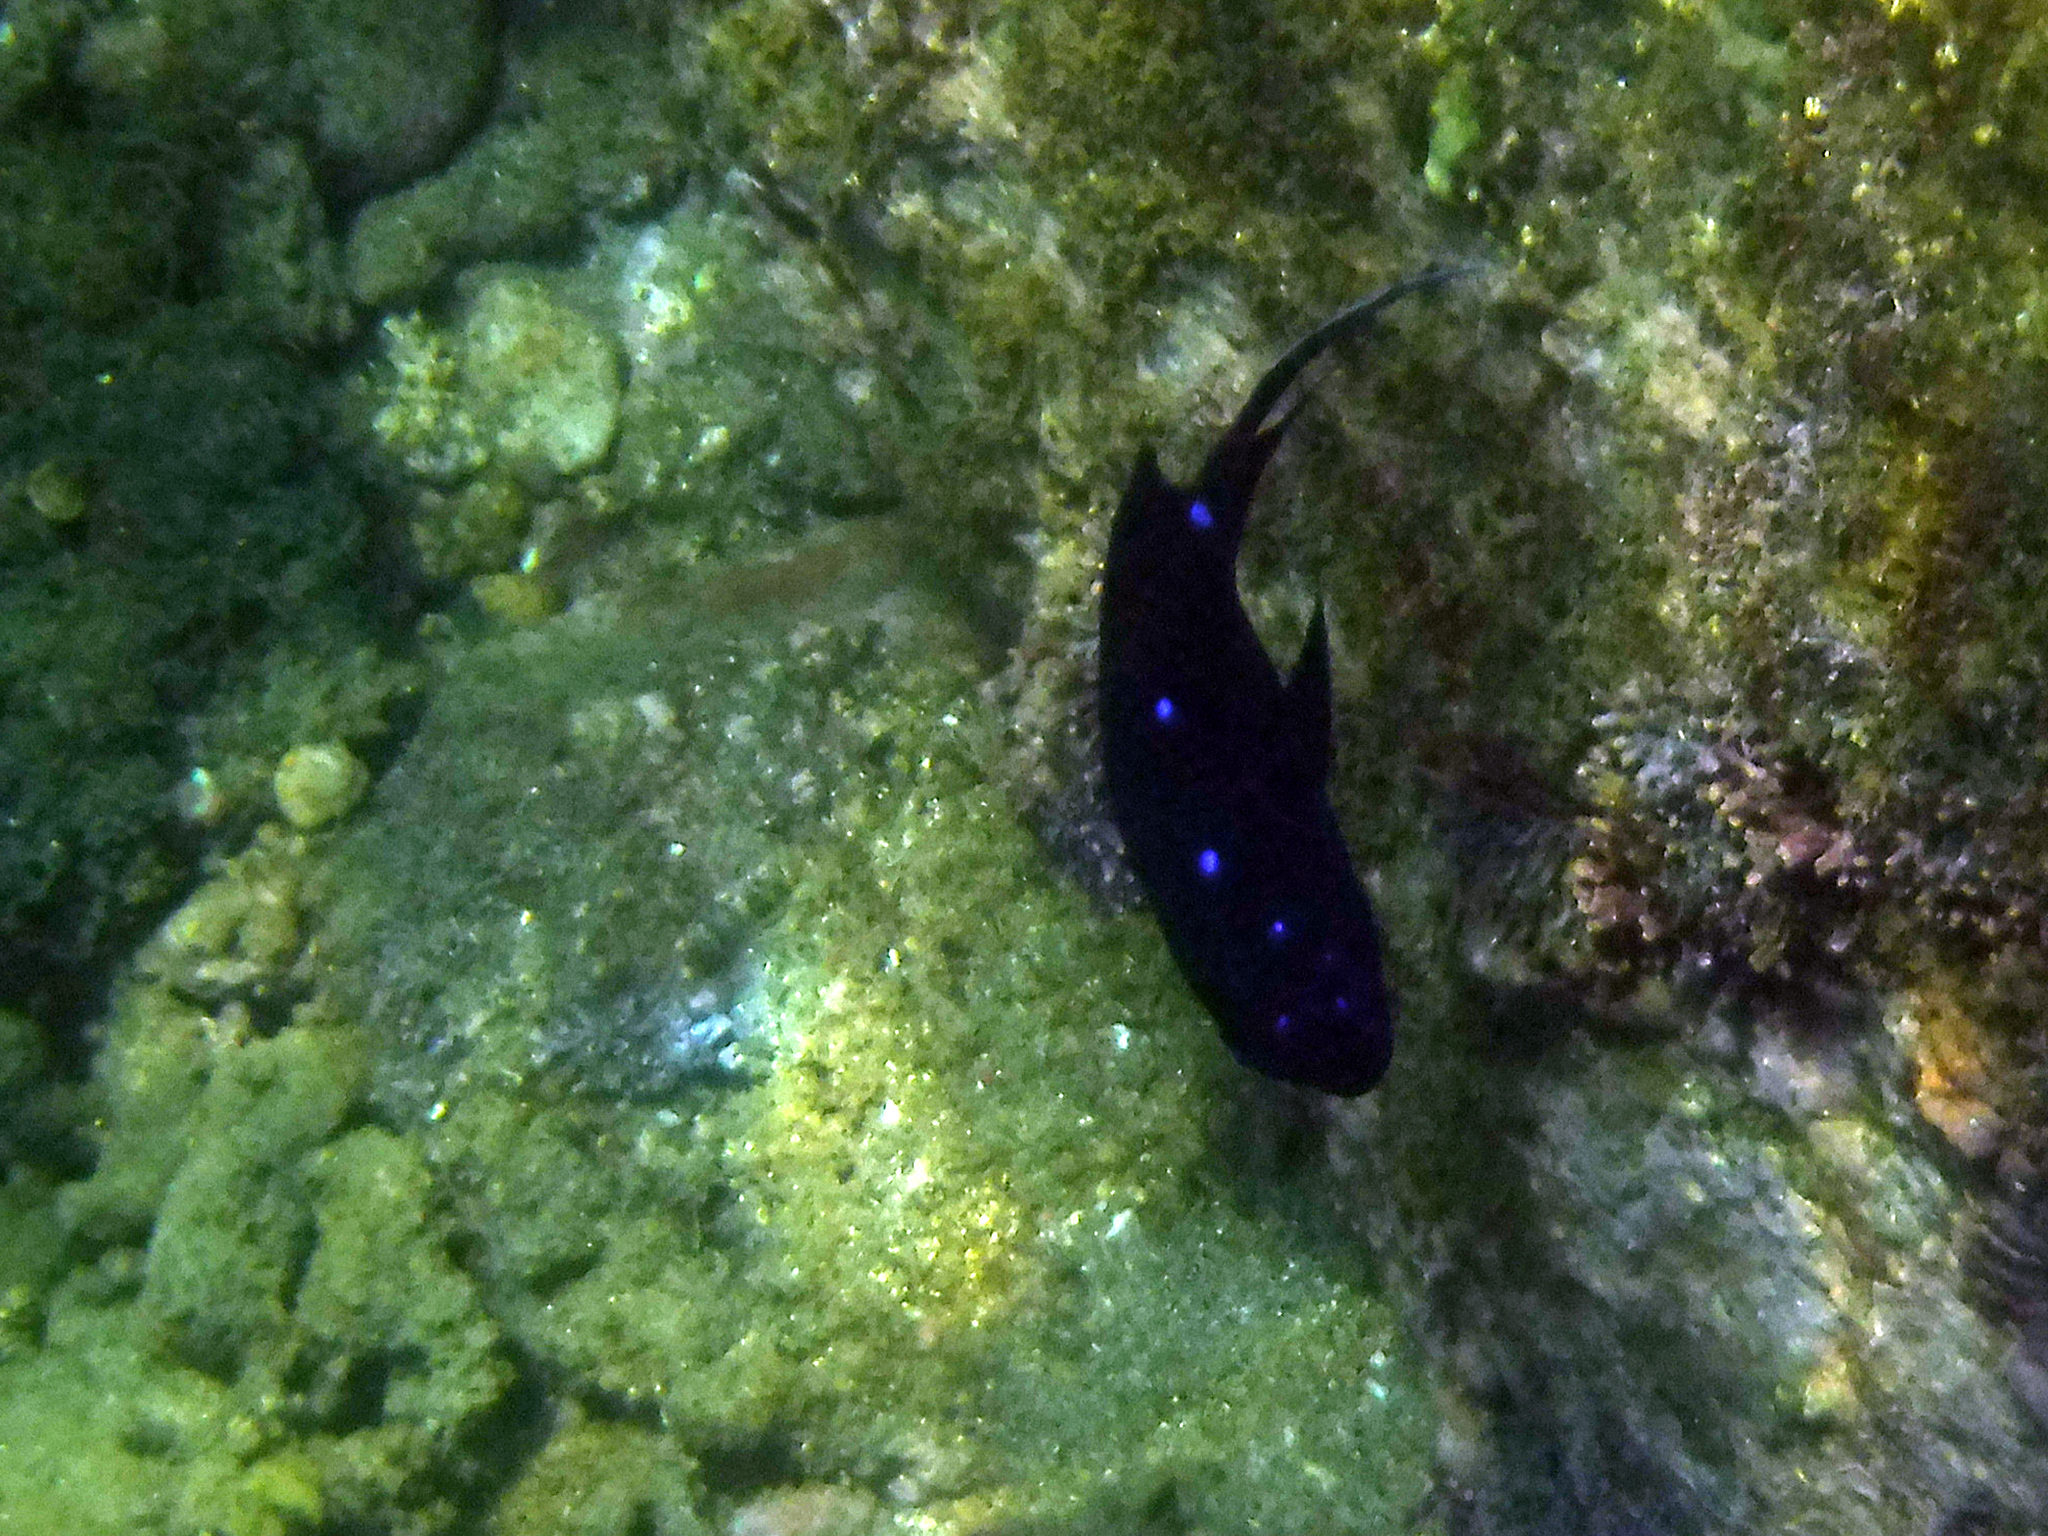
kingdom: Animalia
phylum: Chordata
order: Perciformes
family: Pomacentridae
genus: Microspathodon
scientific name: Microspathodon dorsalis
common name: Giant damselfish
